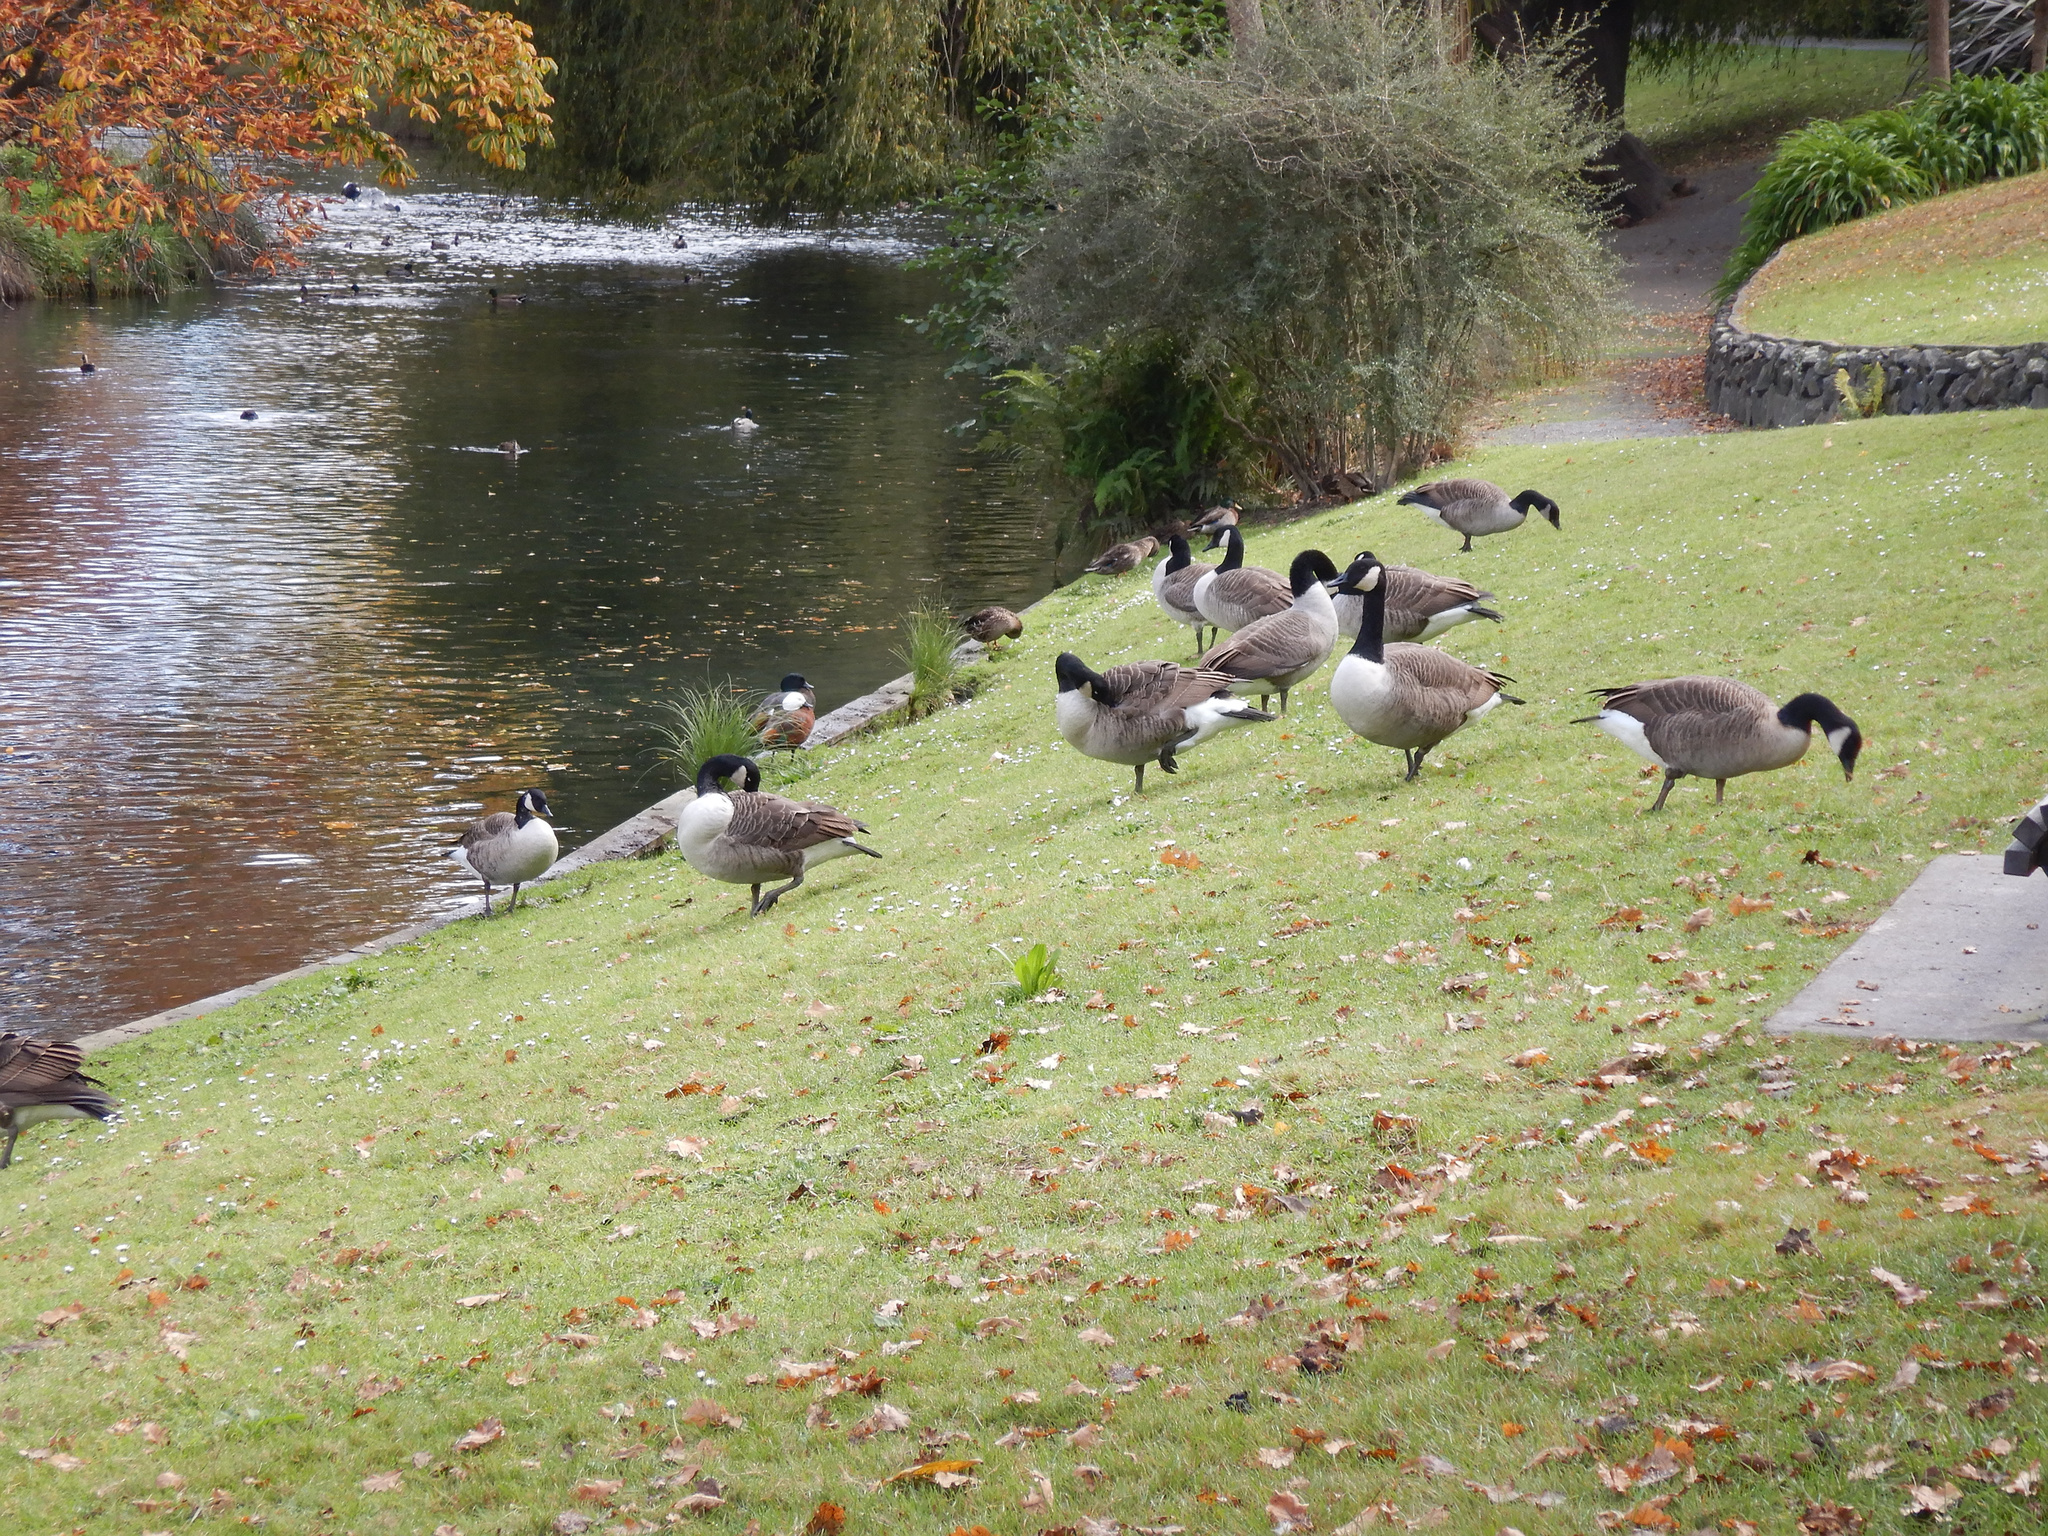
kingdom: Animalia
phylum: Chordata
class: Aves
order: Anseriformes
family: Anatidae
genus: Branta
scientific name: Branta canadensis
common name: Canada goose
